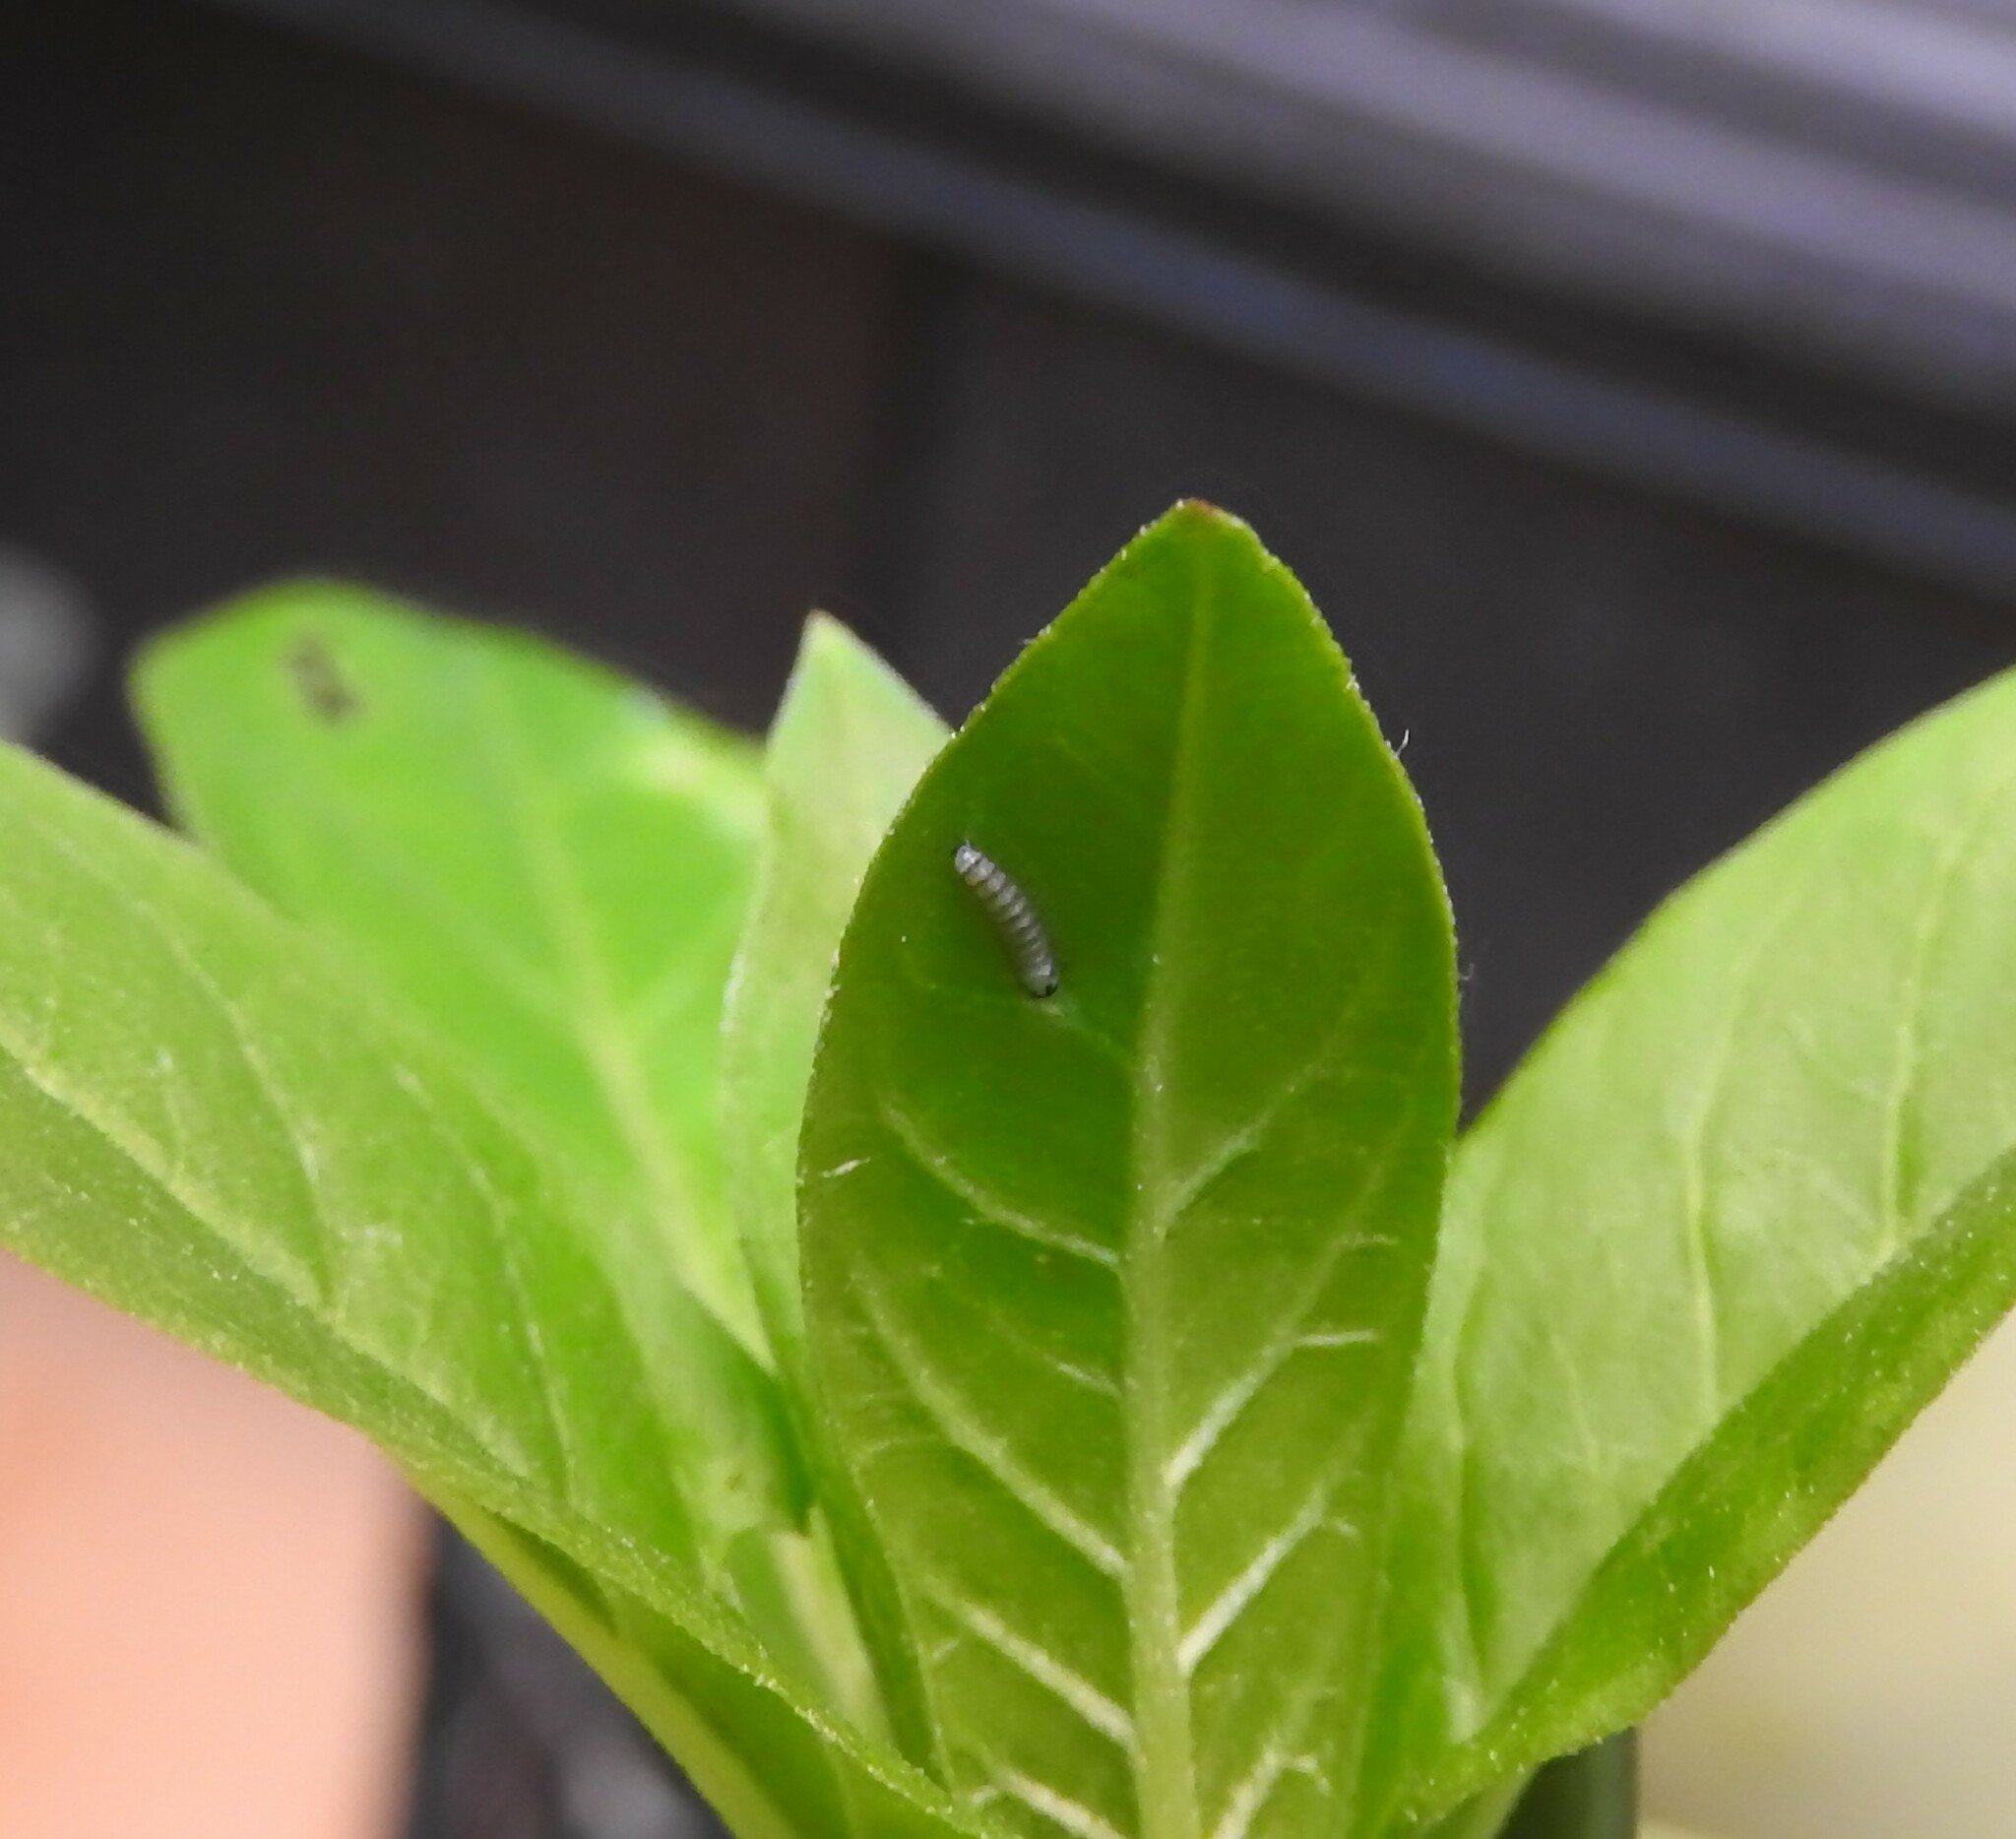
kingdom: Animalia
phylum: Arthropoda
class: Insecta
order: Lepidoptera
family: Nymphalidae
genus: Danaus
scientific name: Danaus plexippus
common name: Monarch
